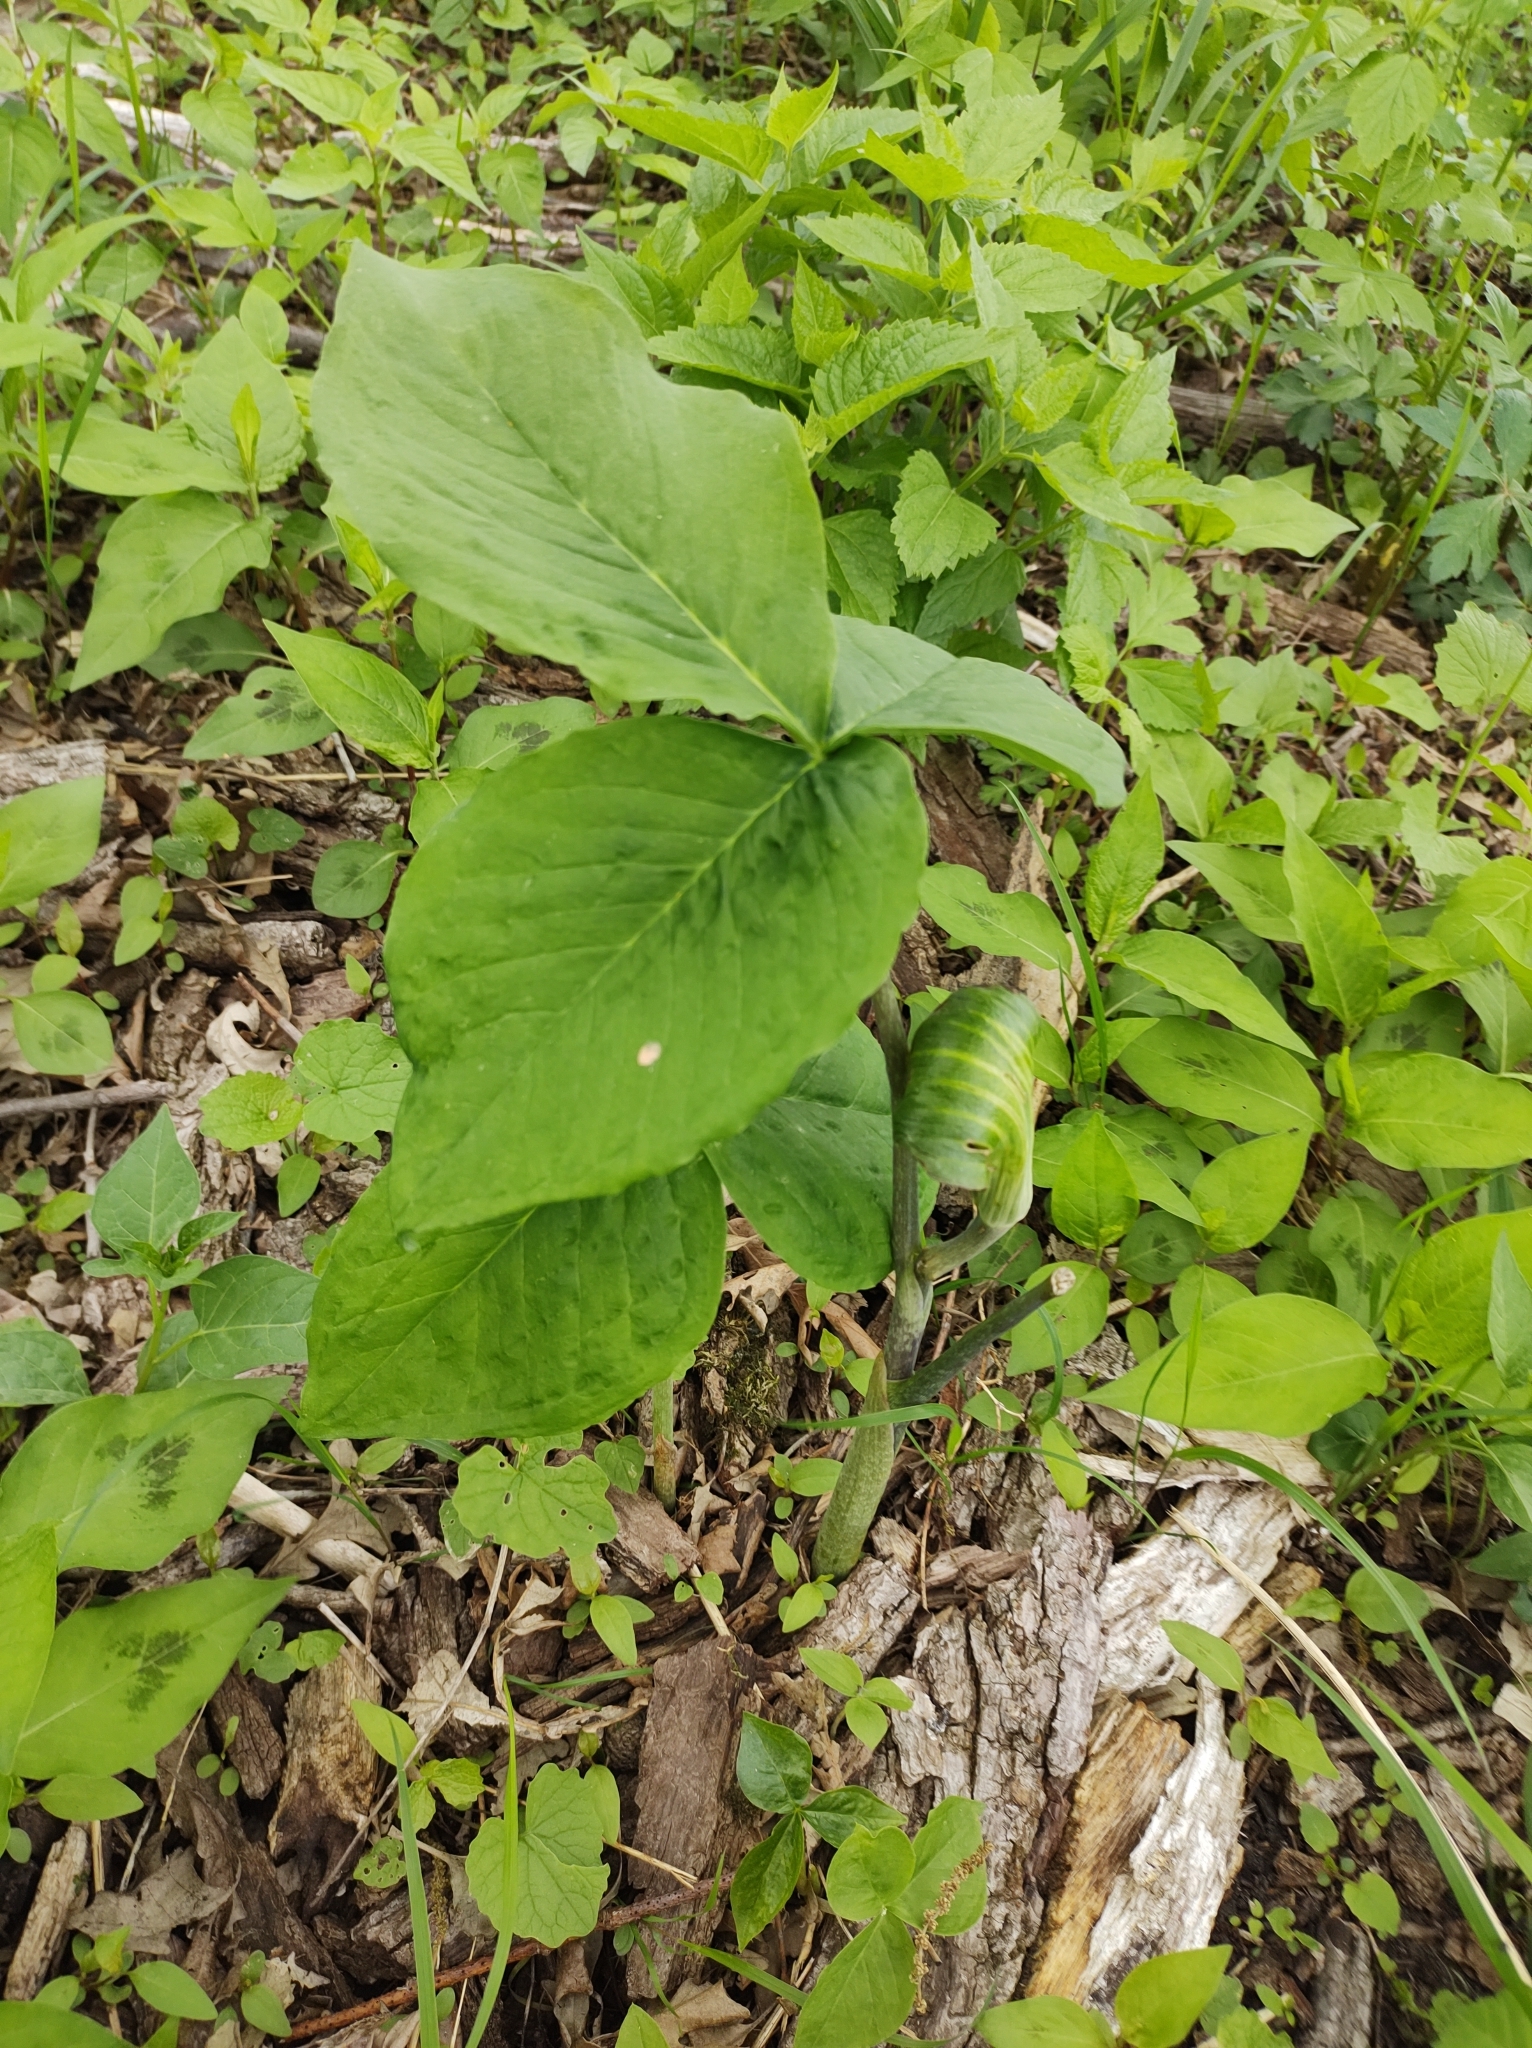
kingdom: Plantae
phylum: Tracheophyta
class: Liliopsida
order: Alismatales
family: Araceae
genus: Arisaema
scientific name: Arisaema triphyllum
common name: Jack-in-the-pulpit
